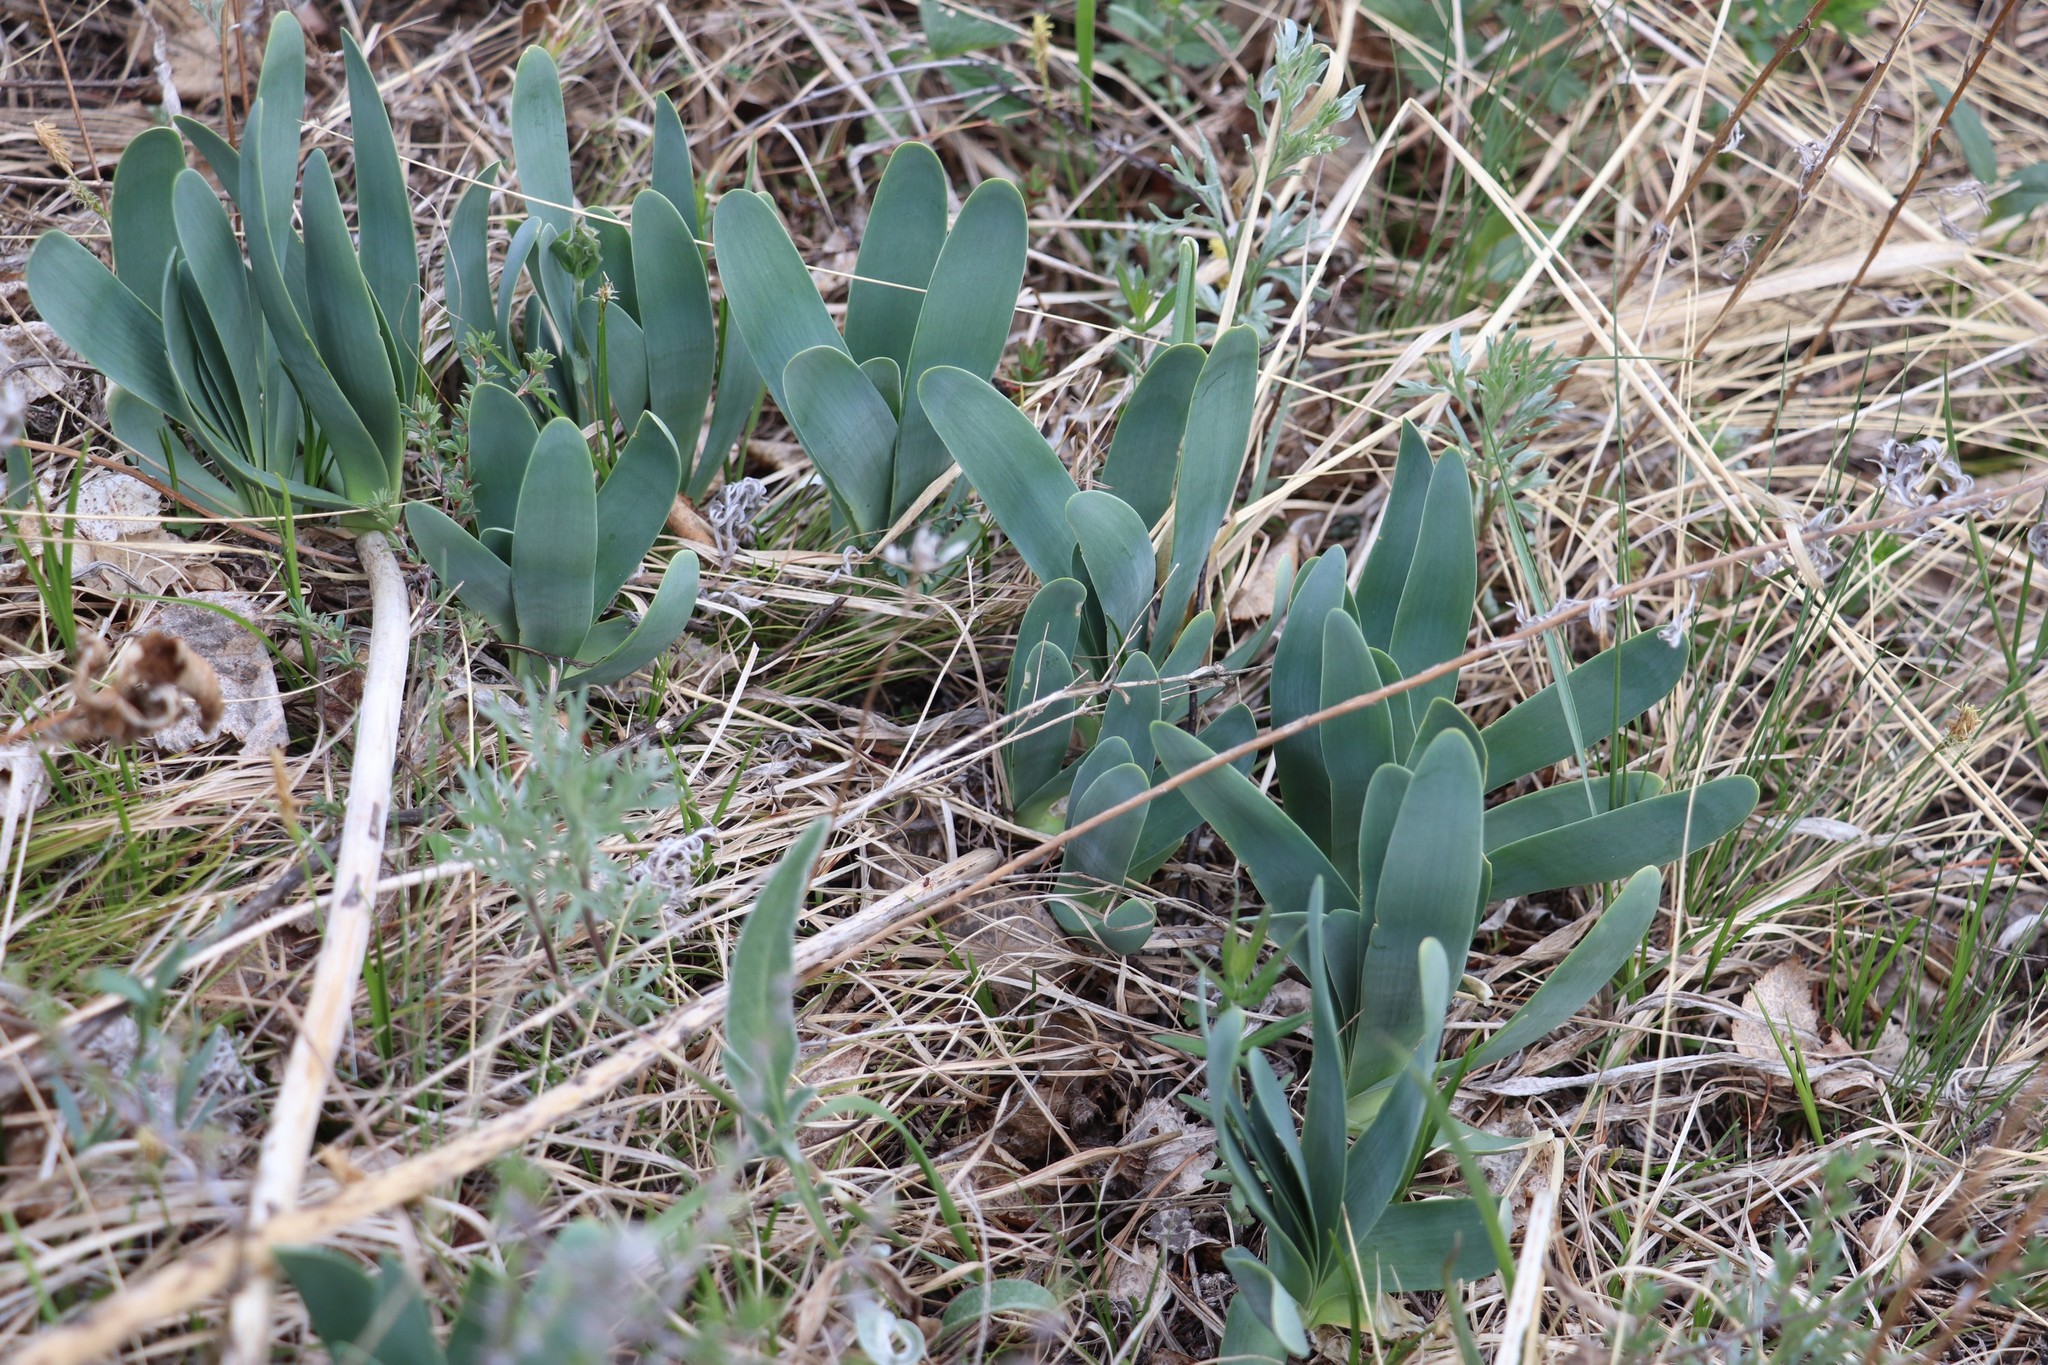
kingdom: Plantae
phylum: Tracheophyta
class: Liliopsida
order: Asparagales
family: Amaryllidaceae
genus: Allium
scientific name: Allium nutans
